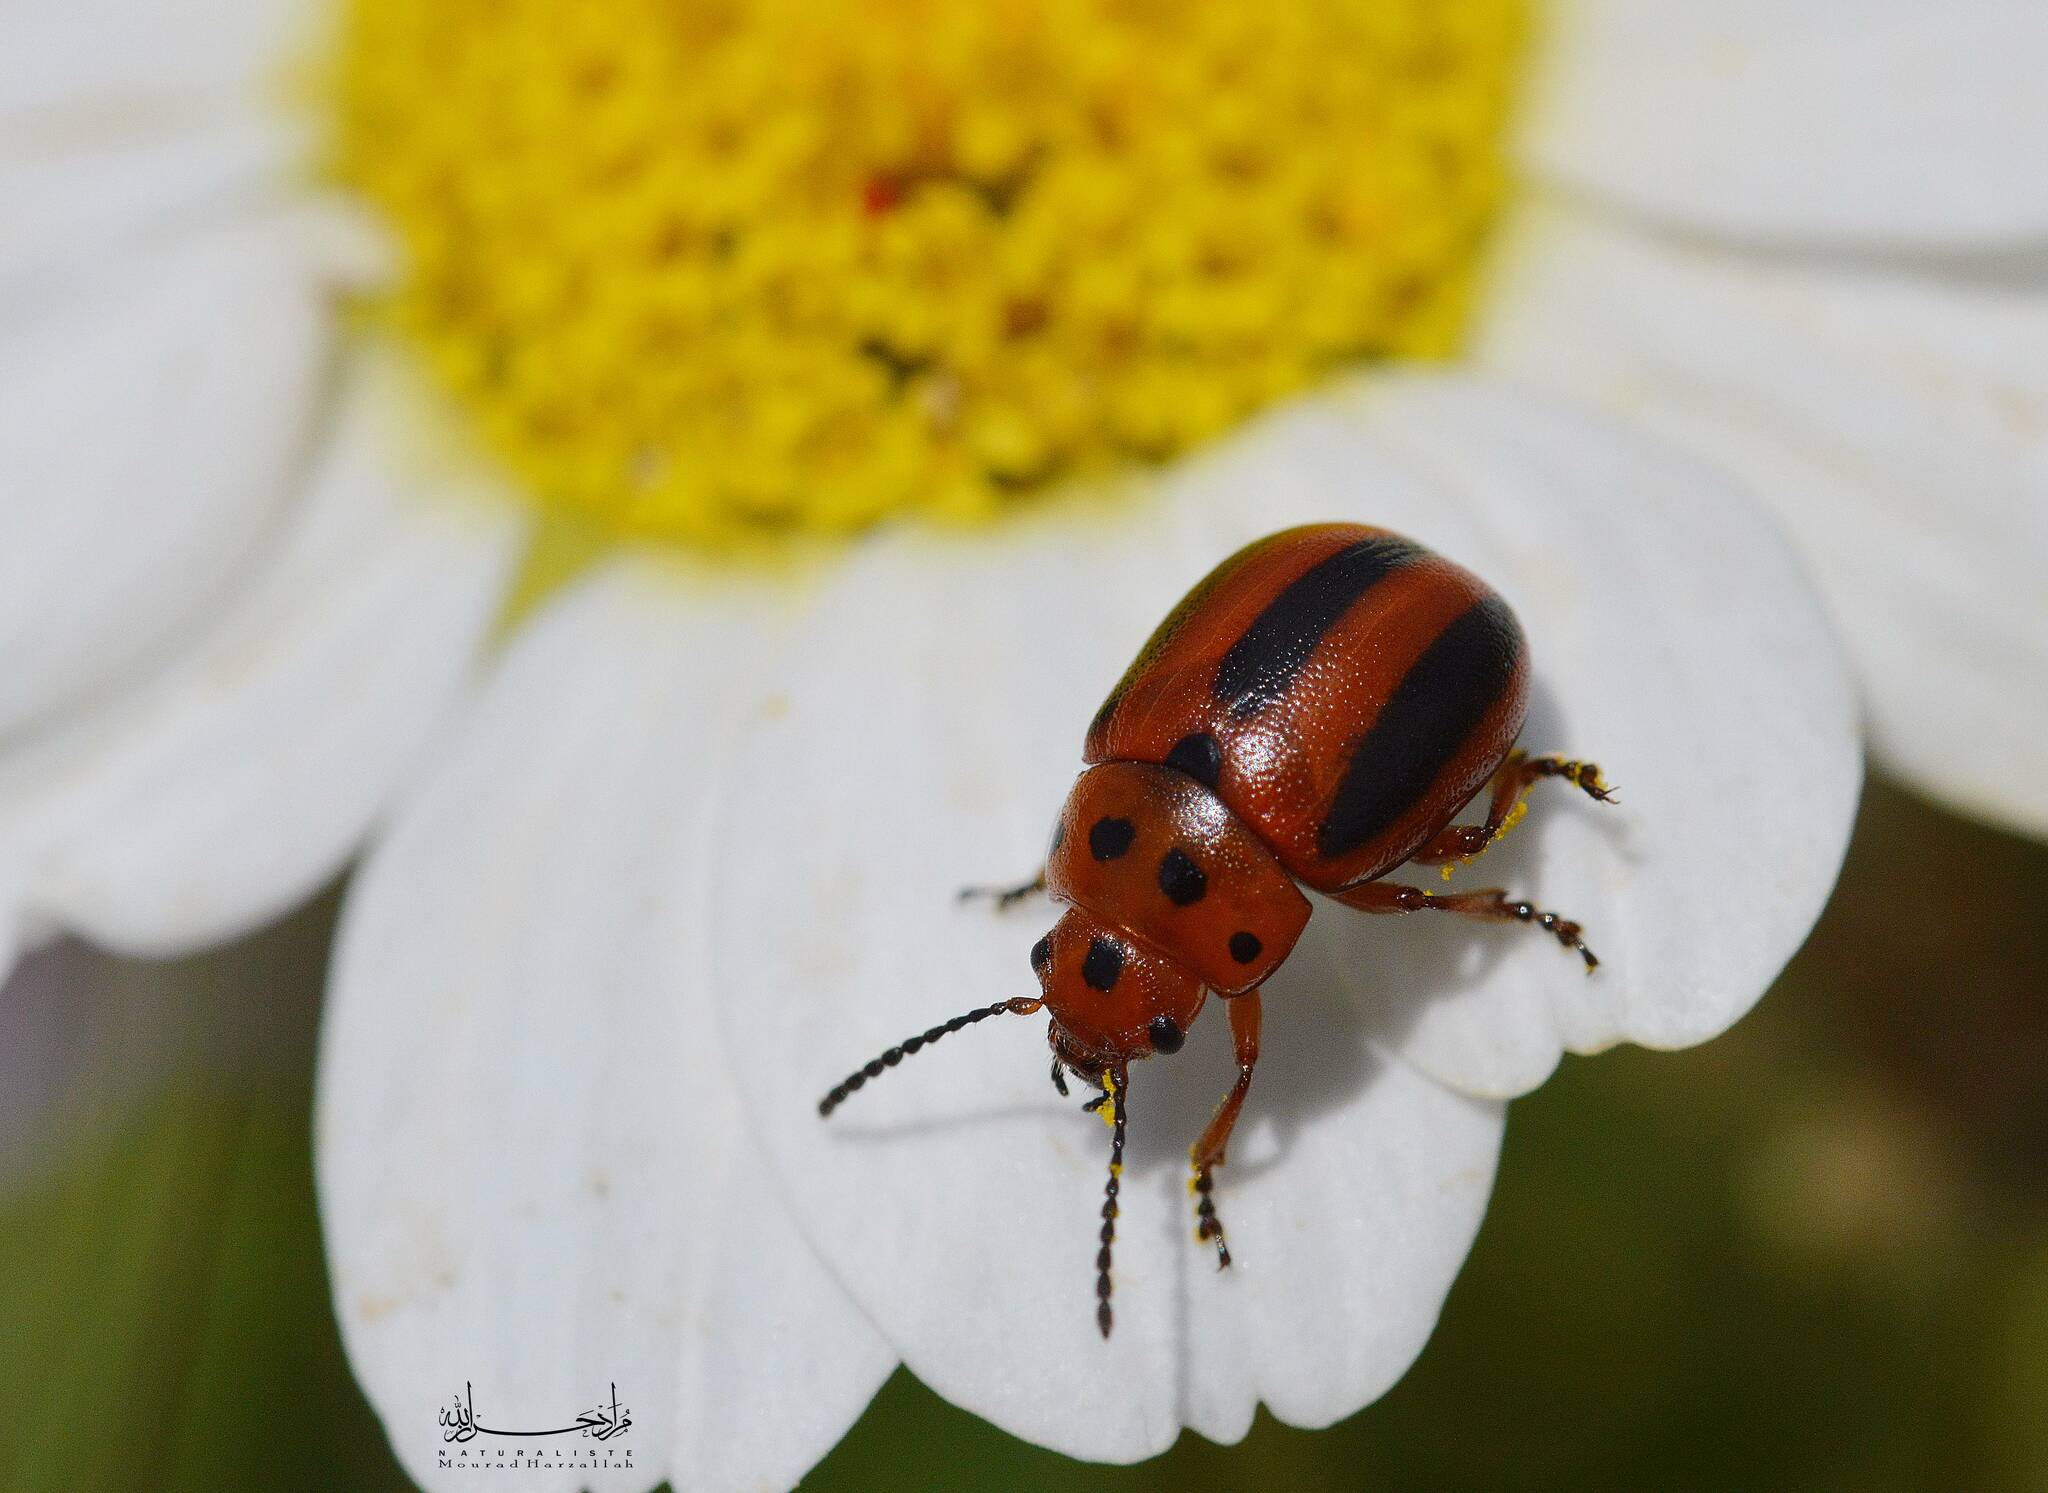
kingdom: Animalia
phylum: Arthropoda
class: Insecta
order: Coleoptera
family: Chrysomelidae
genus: Entomoscelis
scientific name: Entomoscelis rumicis
